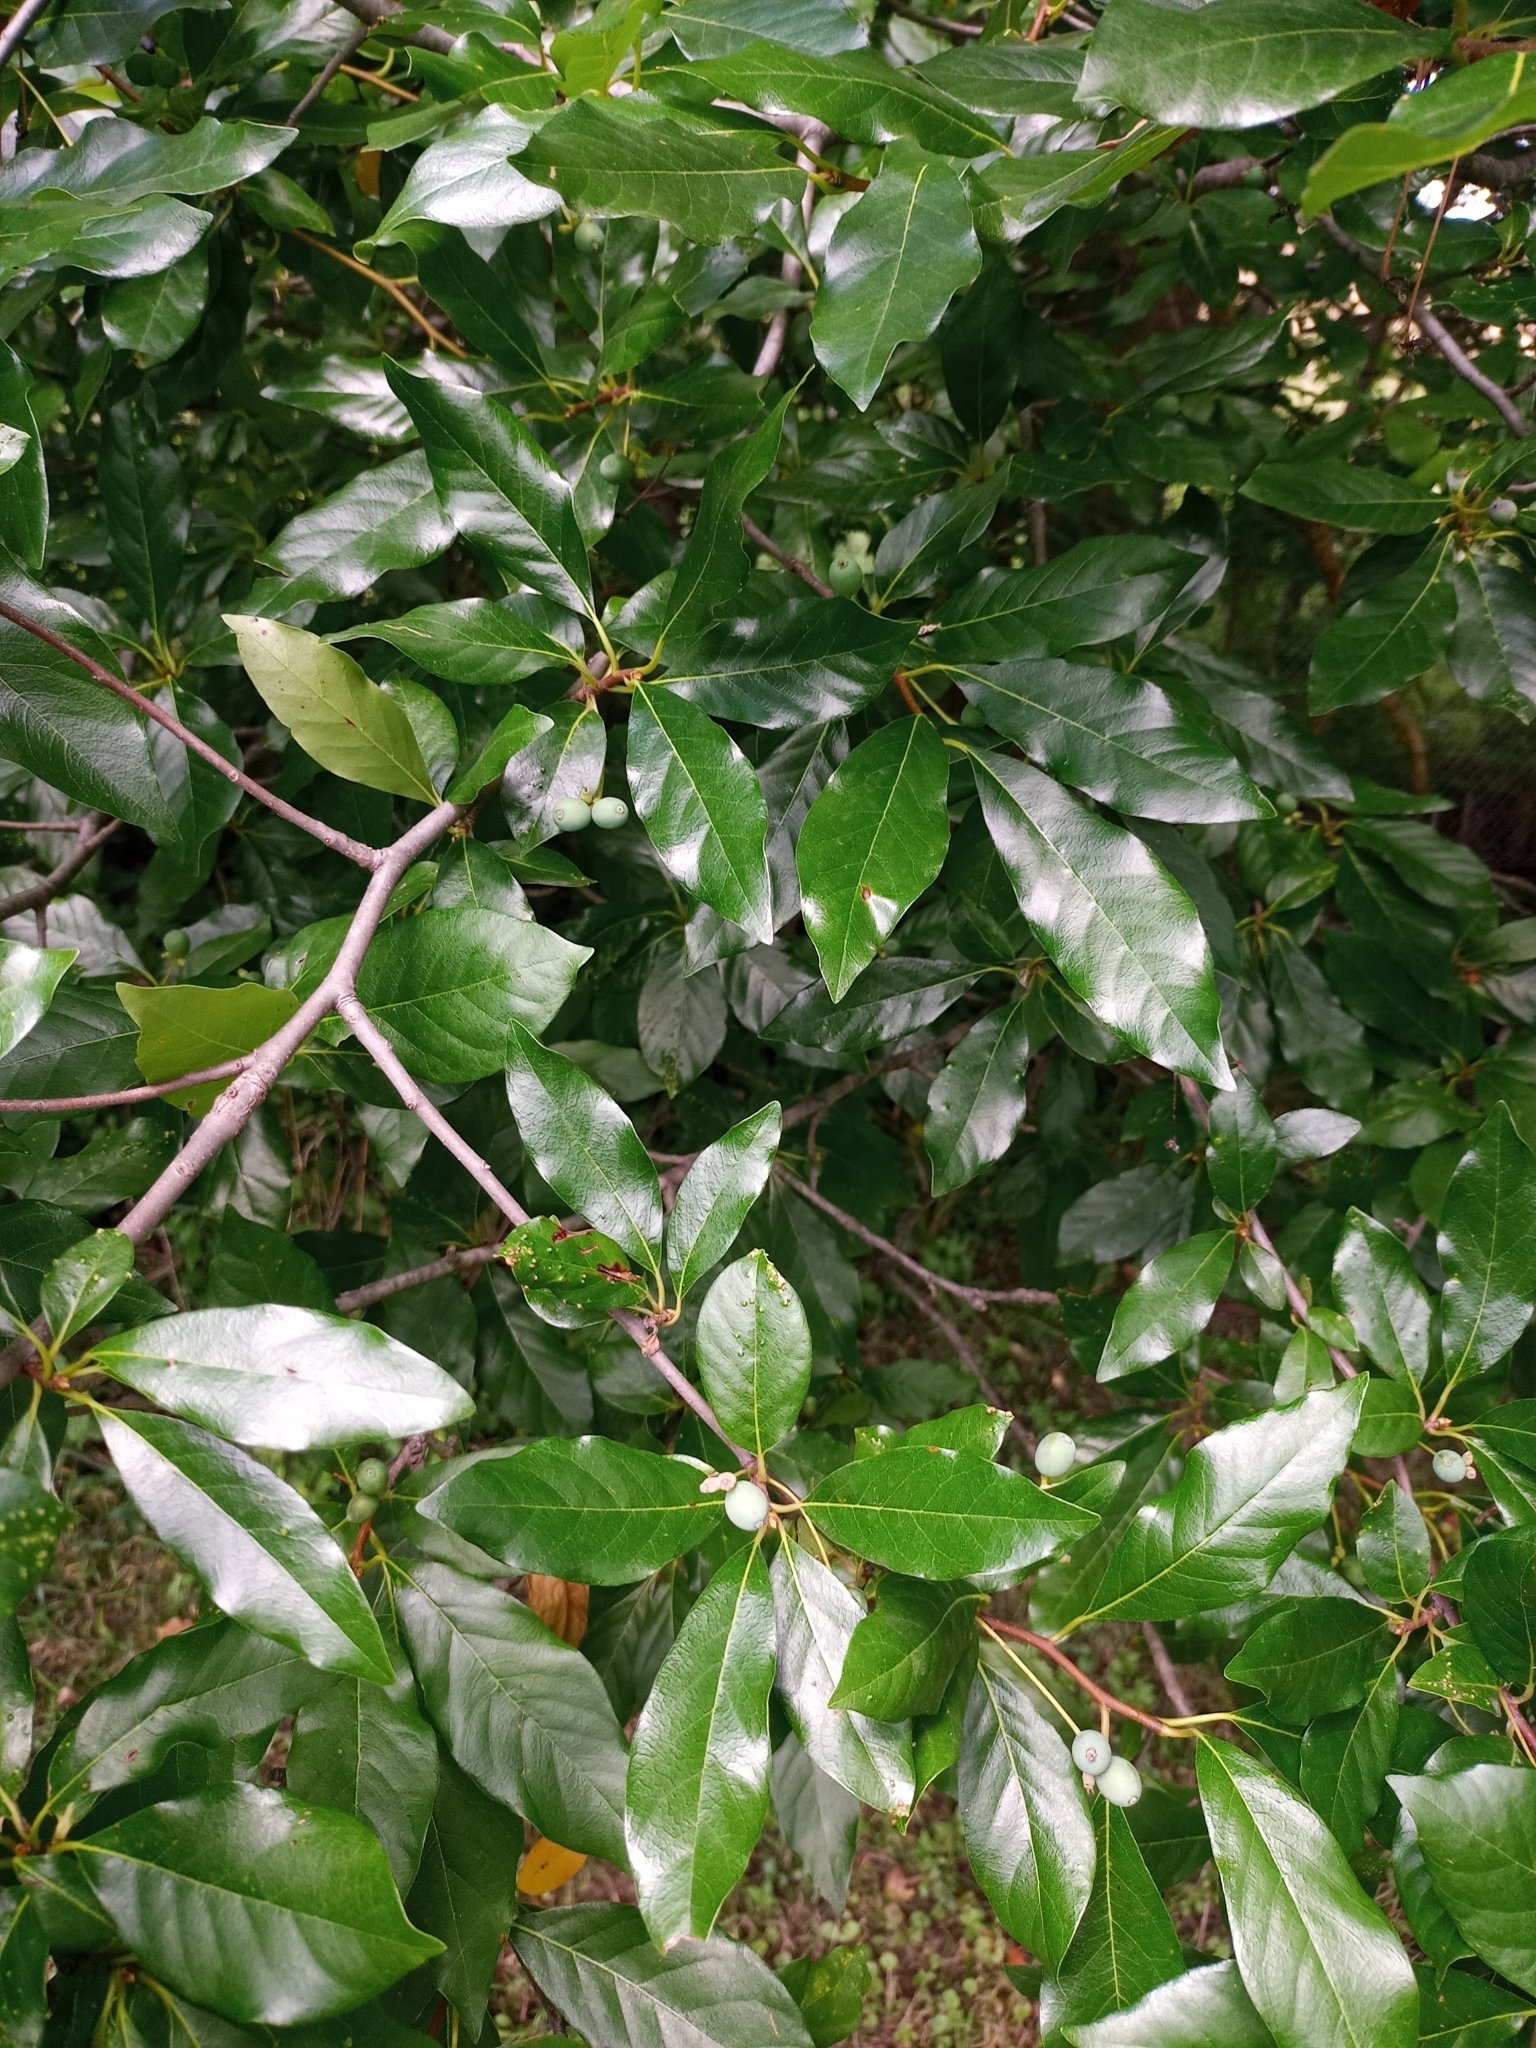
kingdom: Plantae
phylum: Tracheophyta
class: Magnoliopsida
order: Cornales
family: Nyssaceae
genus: Nyssa
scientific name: Nyssa sylvatica
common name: Black tupelo
